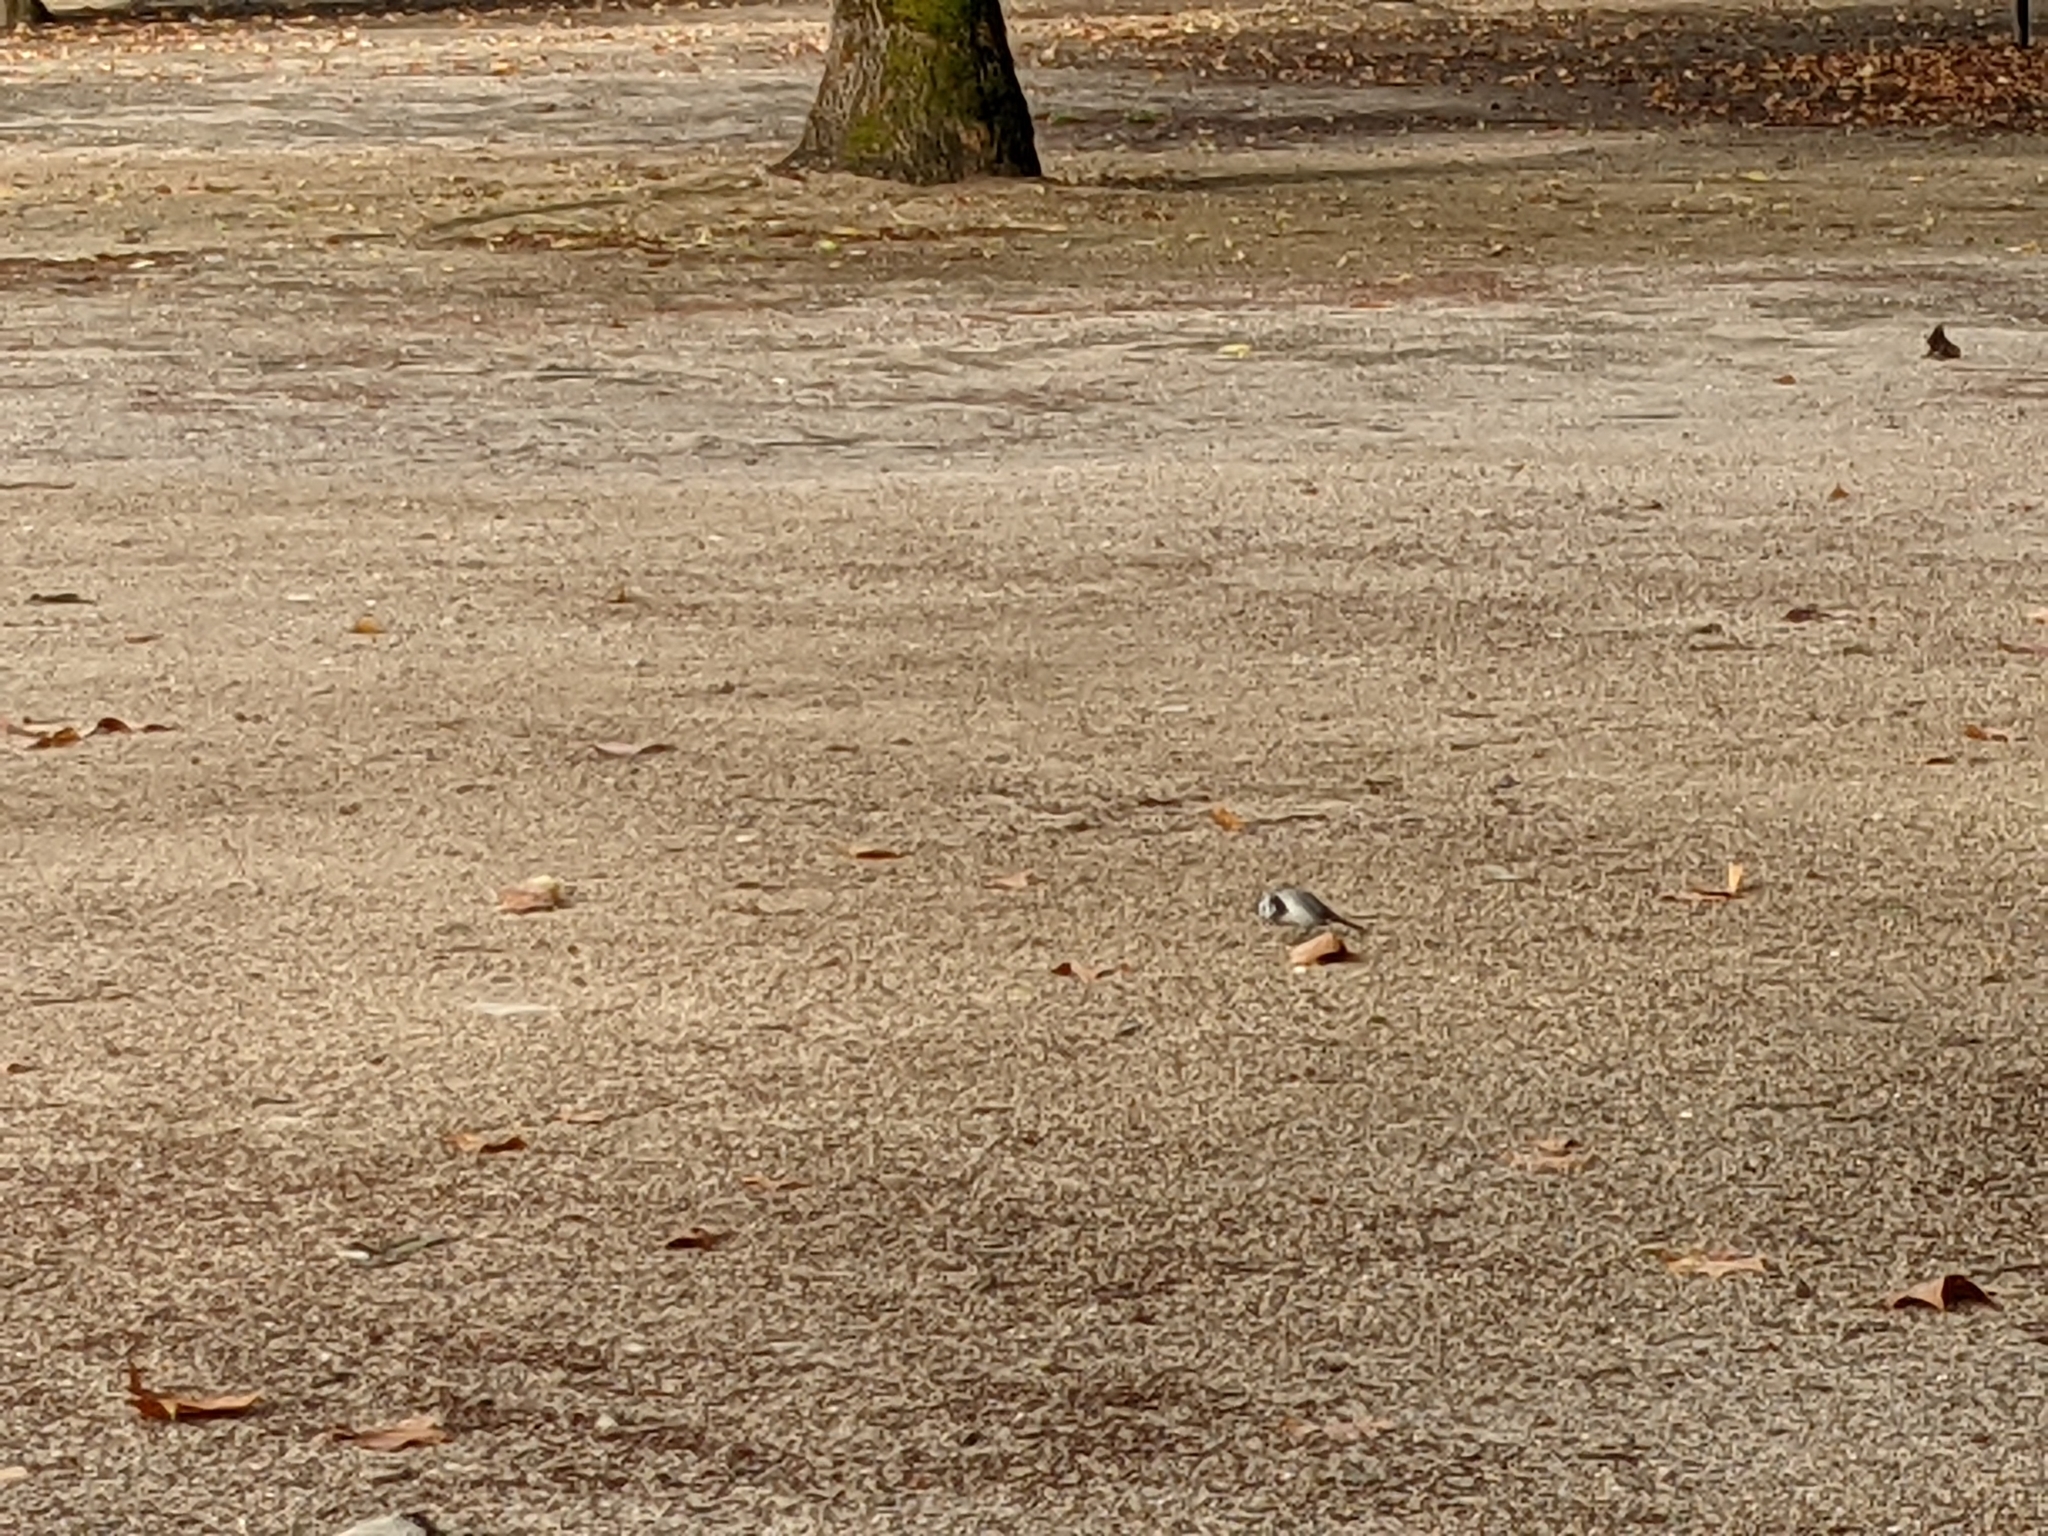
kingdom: Animalia
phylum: Chordata
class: Aves
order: Passeriformes
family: Motacillidae
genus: Motacilla
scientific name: Motacilla alba
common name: White wagtail
